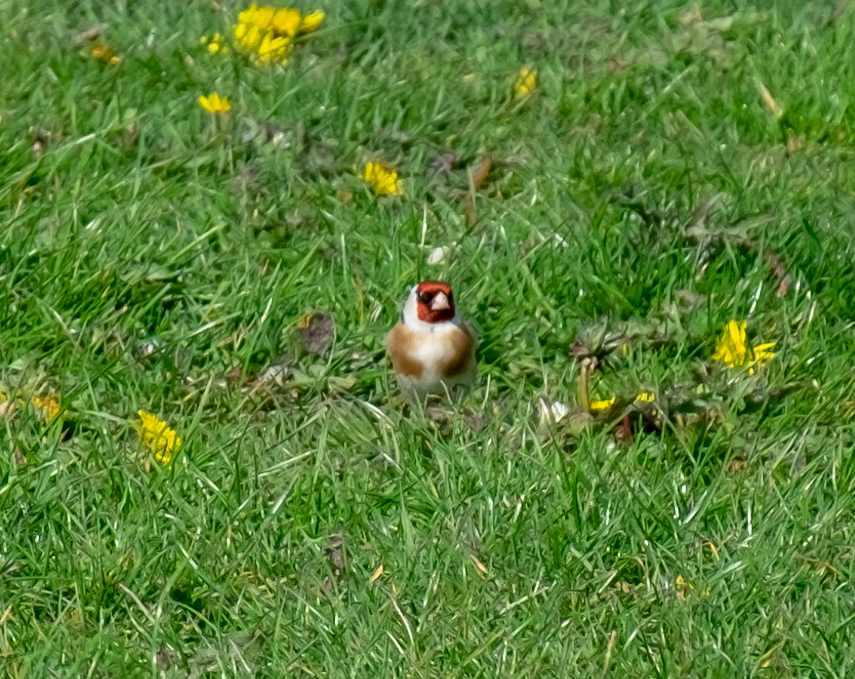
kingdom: Animalia
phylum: Chordata
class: Aves
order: Passeriformes
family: Fringillidae
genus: Carduelis
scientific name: Carduelis carduelis
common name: European goldfinch
